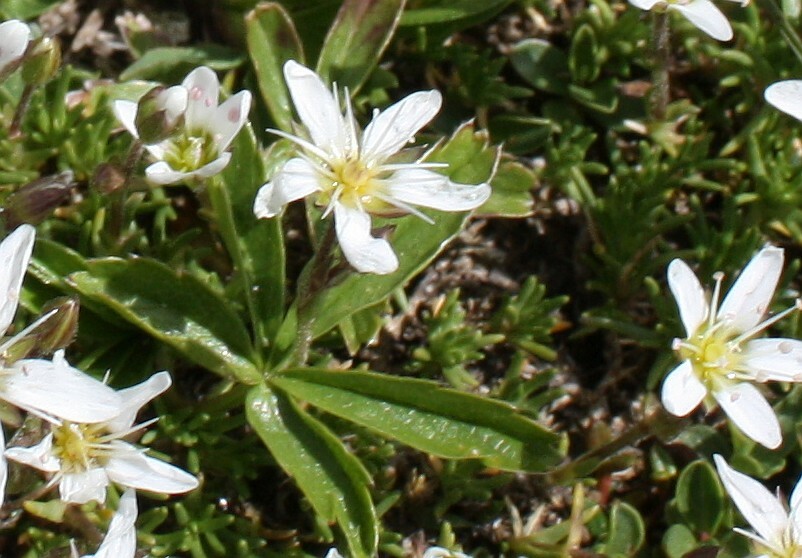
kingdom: Plantae
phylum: Tracheophyta
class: Magnoliopsida
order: Caryophyllales
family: Caryophyllaceae
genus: Moehringia
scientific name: Moehringia ciliata
